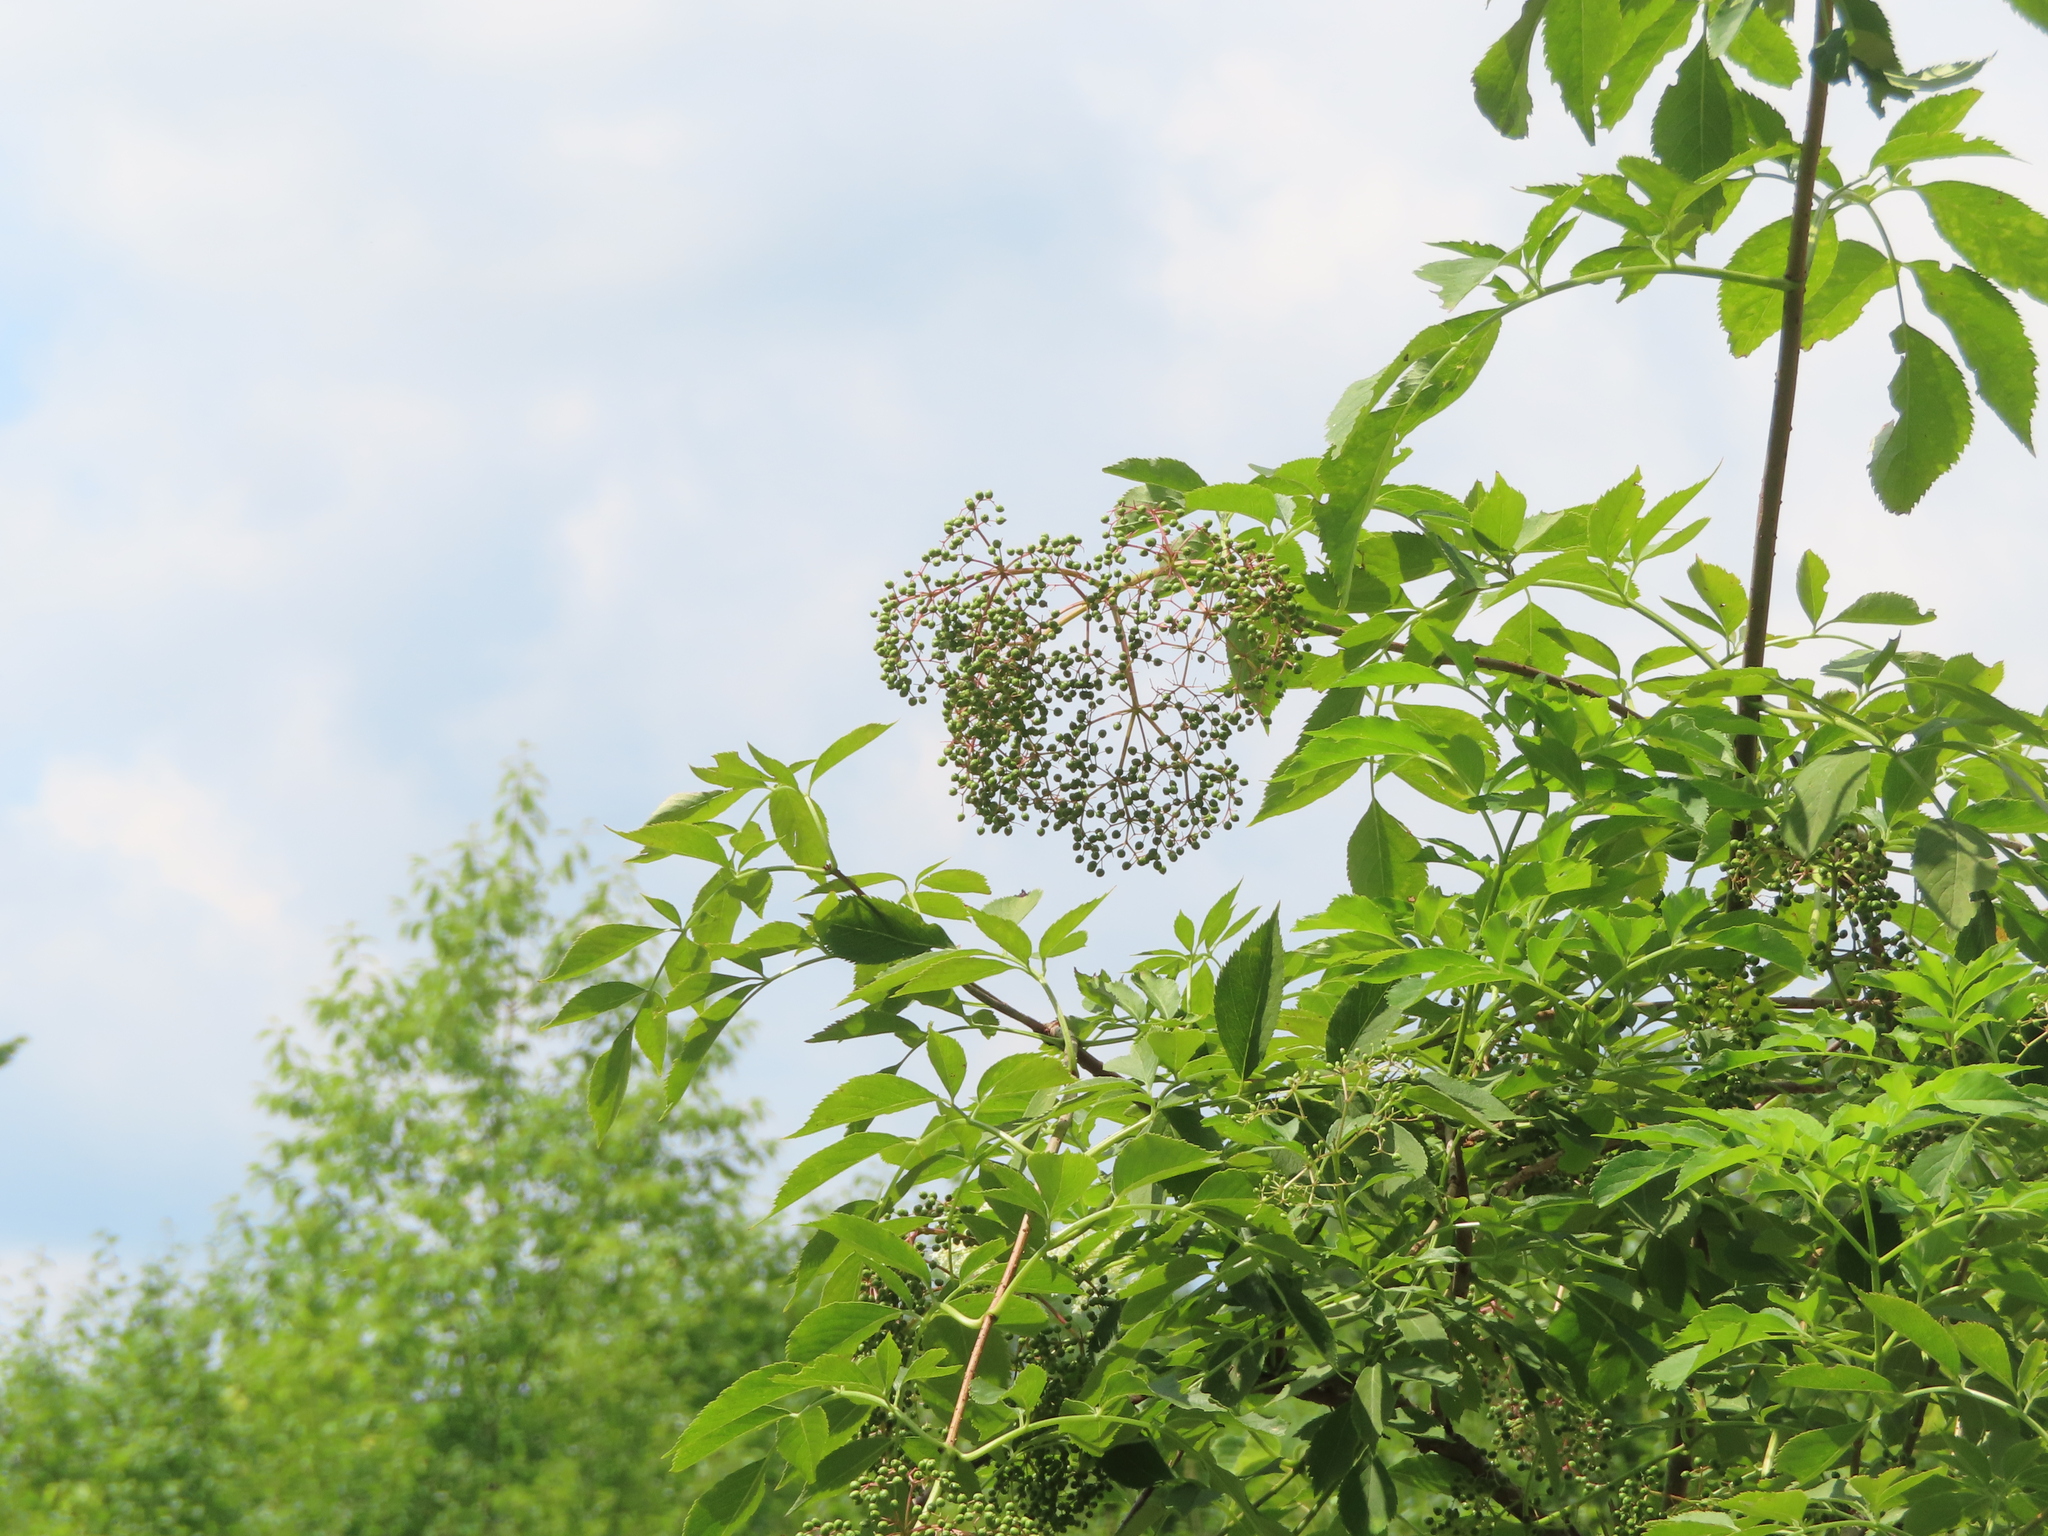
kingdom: Plantae
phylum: Tracheophyta
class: Magnoliopsida
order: Dipsacales
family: Viburnaceae
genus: Sambucus
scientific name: Sambucus canadensis
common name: American elder
